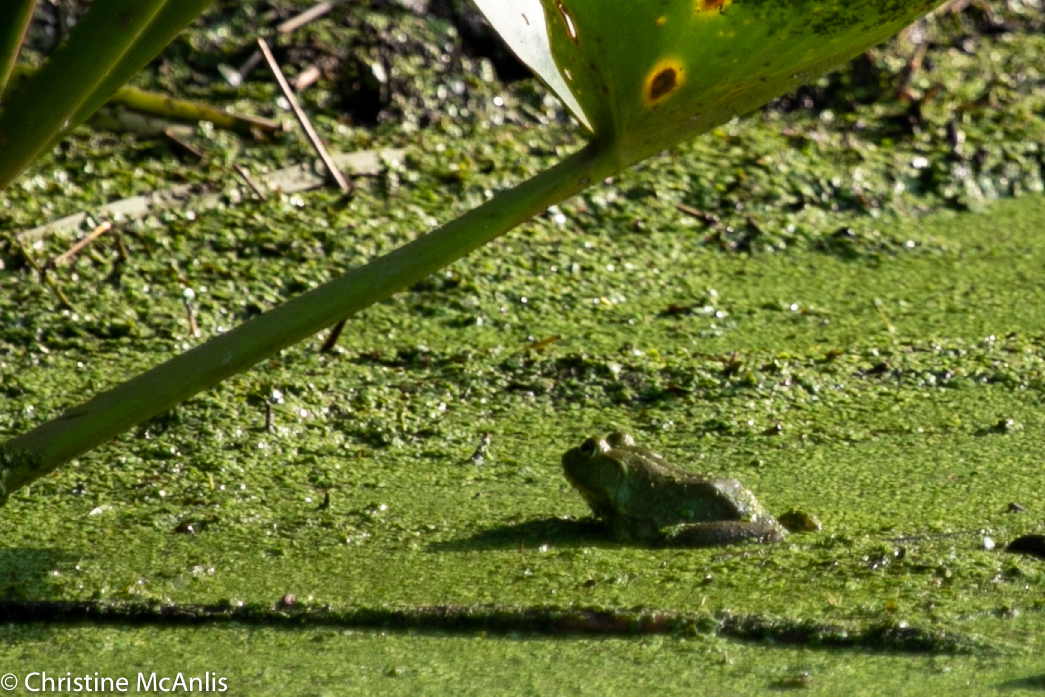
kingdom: Animalia
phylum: Chordata
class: Amphibia
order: Anura
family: Ranidae
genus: Lithobates
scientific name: Lithobates catesbeianus
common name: American bullfrog
